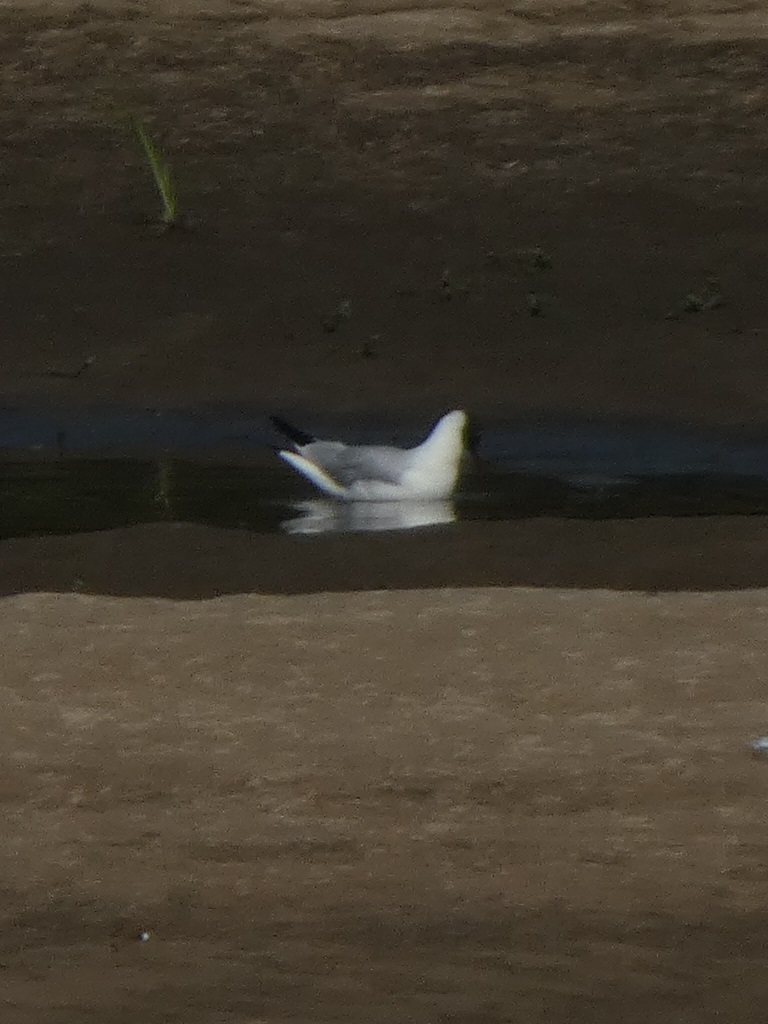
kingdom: Animalia
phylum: Chordata
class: Aves
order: Charadriiformes
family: Laridae
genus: Chroicocephalus
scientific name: Chroicocephalus ridibundus
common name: Black-headed gull
